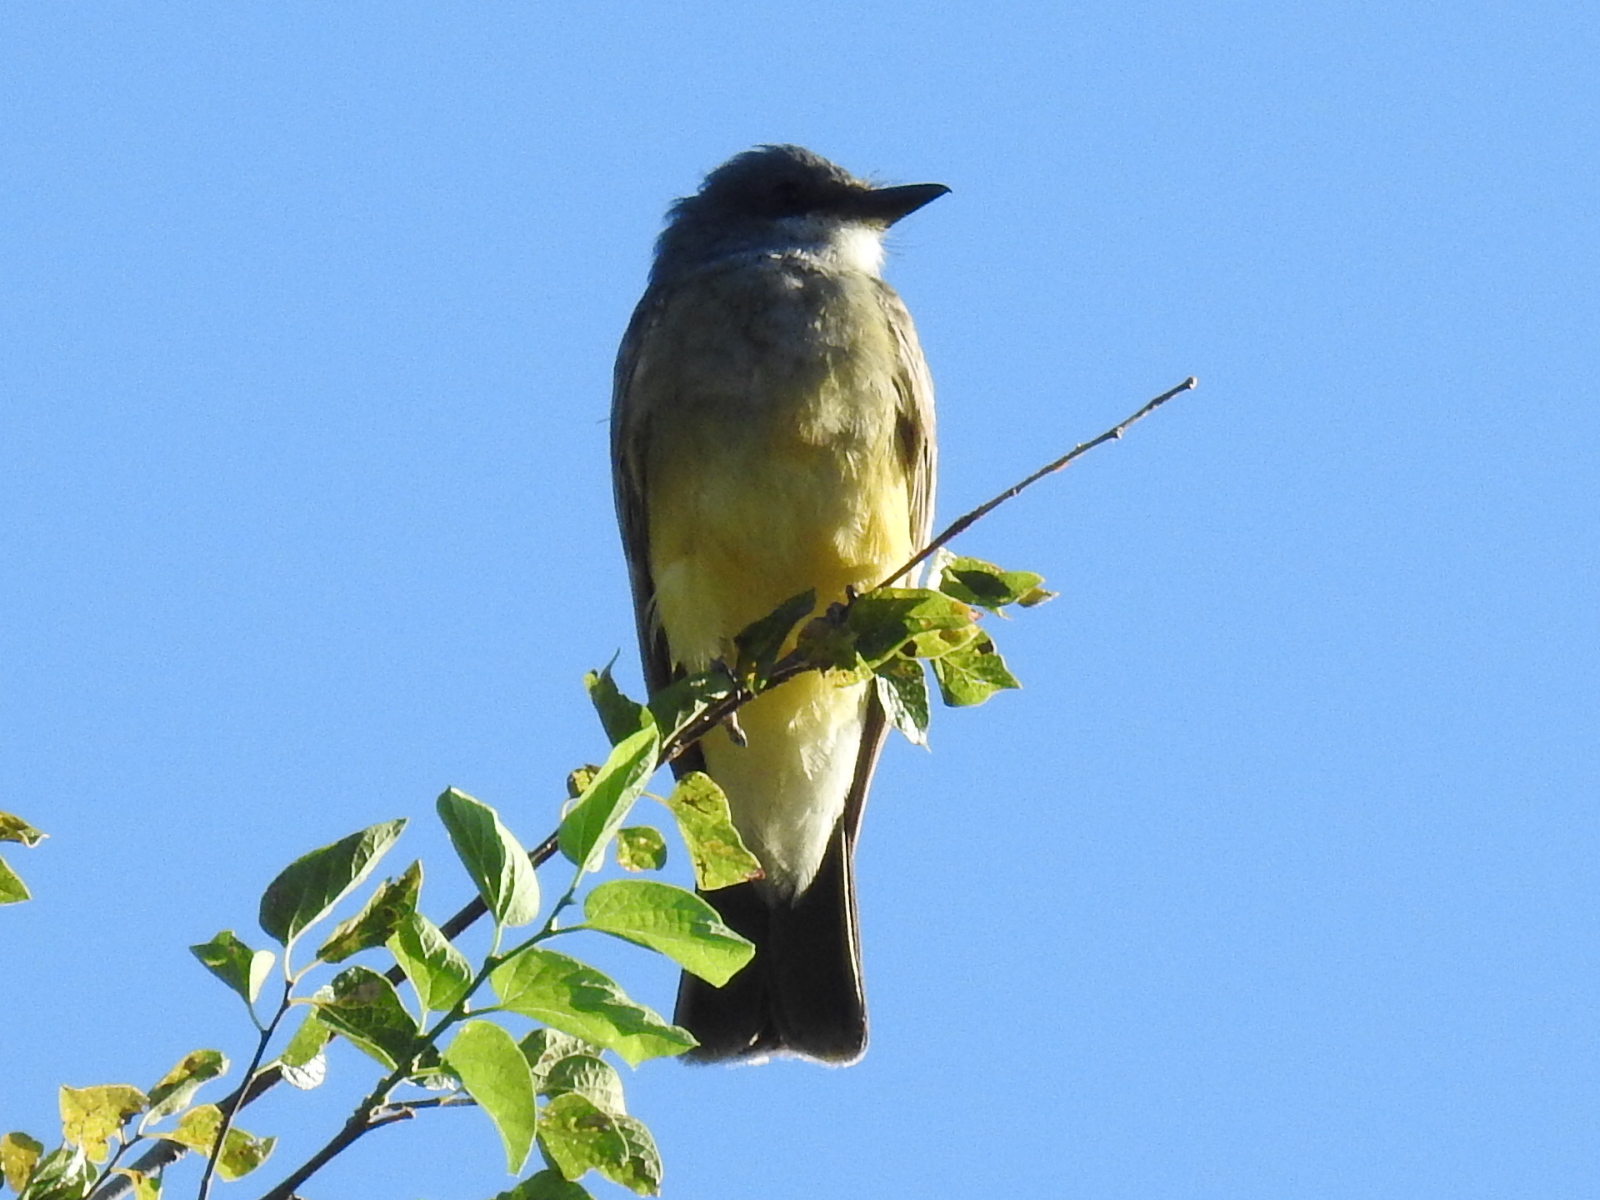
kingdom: Animalia
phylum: Chordata
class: Aves
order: Passeriformes
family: Tyrannidae
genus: Tyrannus
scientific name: Tyrannus vociferans
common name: Cassin's kingbird
